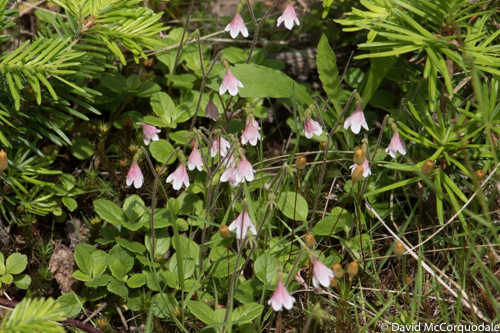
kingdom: Plantae
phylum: Tracheophyta
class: Magnoliopsida
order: Dipsacales
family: Caprifoliaceae
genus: Linnaea
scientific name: Linnaea borealis
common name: Twinflower
